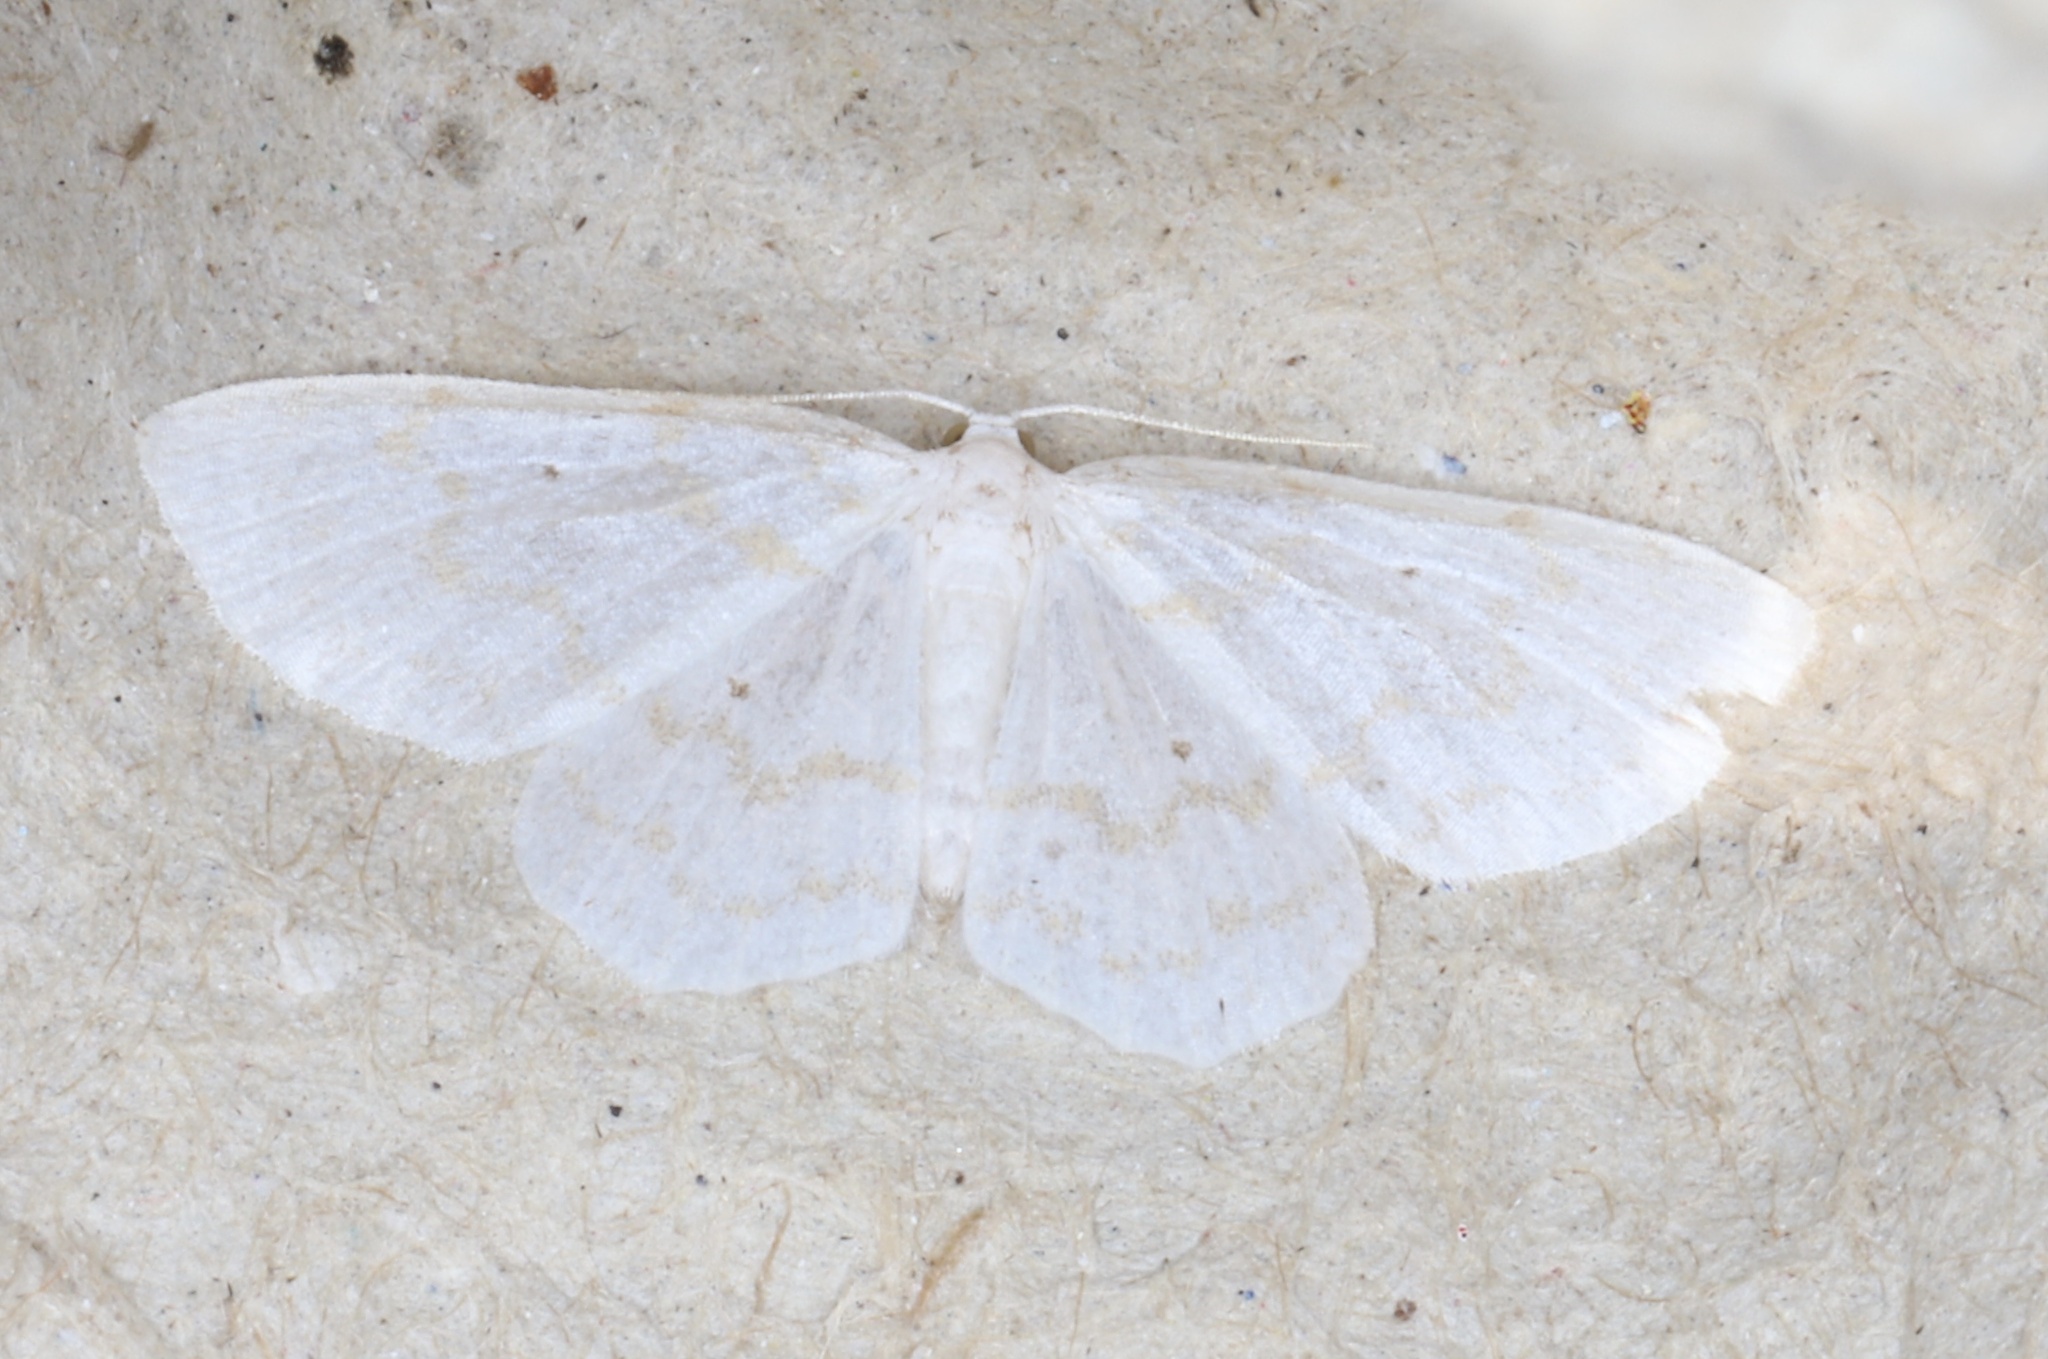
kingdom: Animalia
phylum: Arthropoda
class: Insecta
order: Lepidoptera
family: Geometridae
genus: Hydrelia
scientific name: Hydrelia albifera
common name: Fragile white carpet
